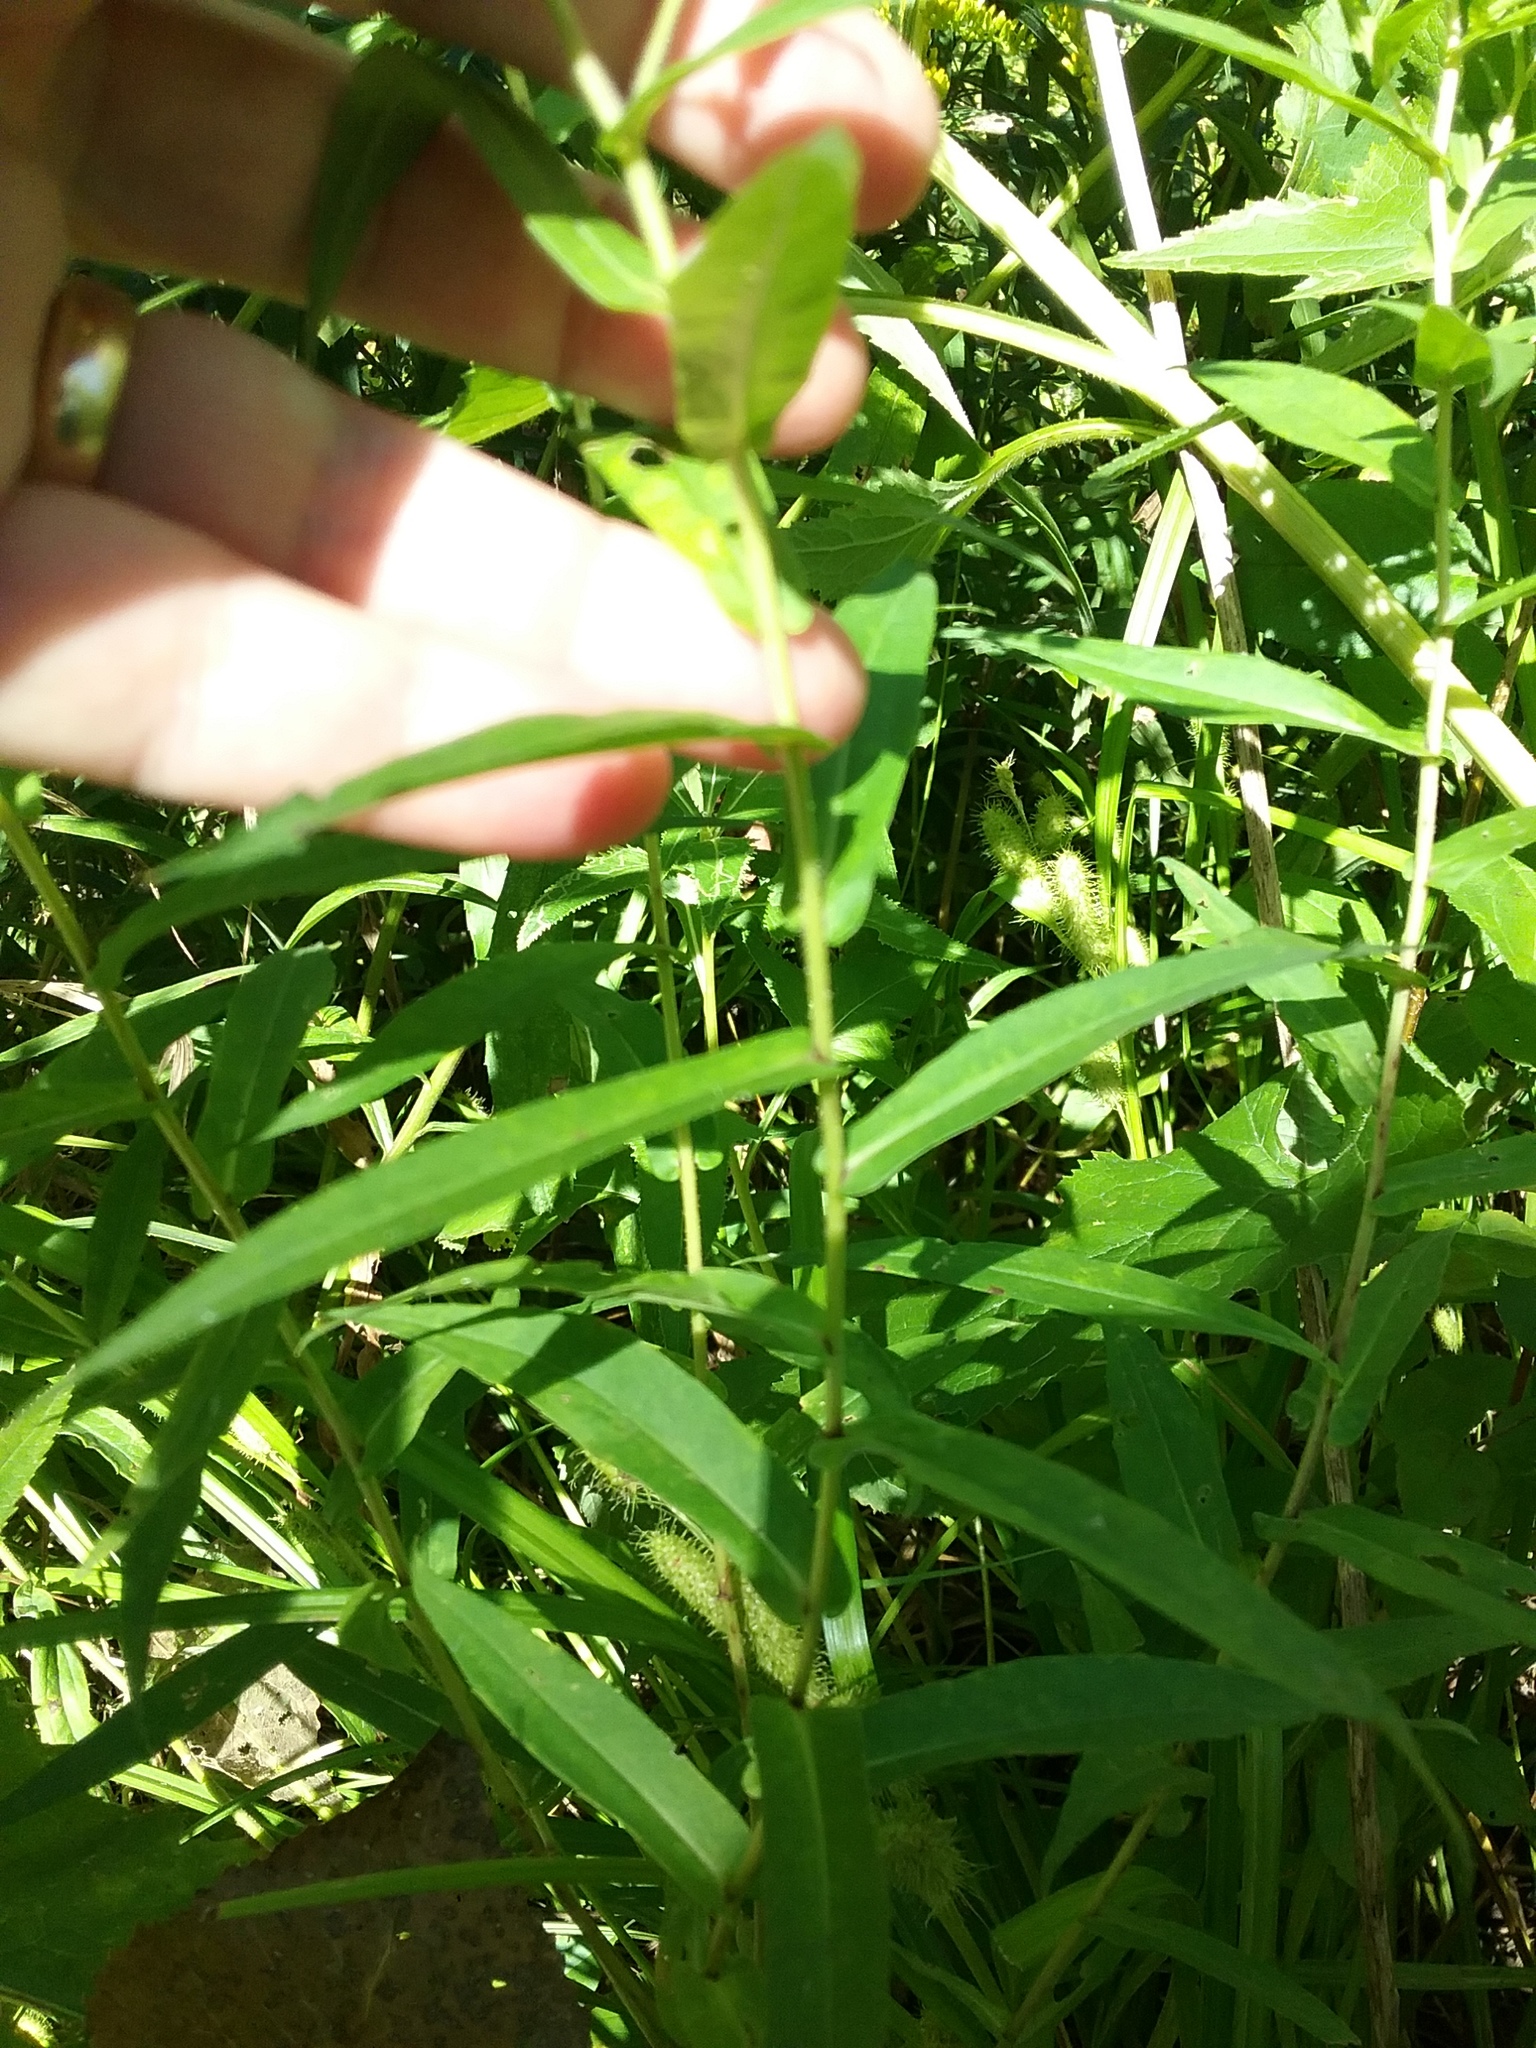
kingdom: Plantae
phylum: Tracheophyta
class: Magnoliopsida
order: Asterales
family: Asteraceae
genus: Symphyotrichum
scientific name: Symphyotrichum firmum
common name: Shining aster
